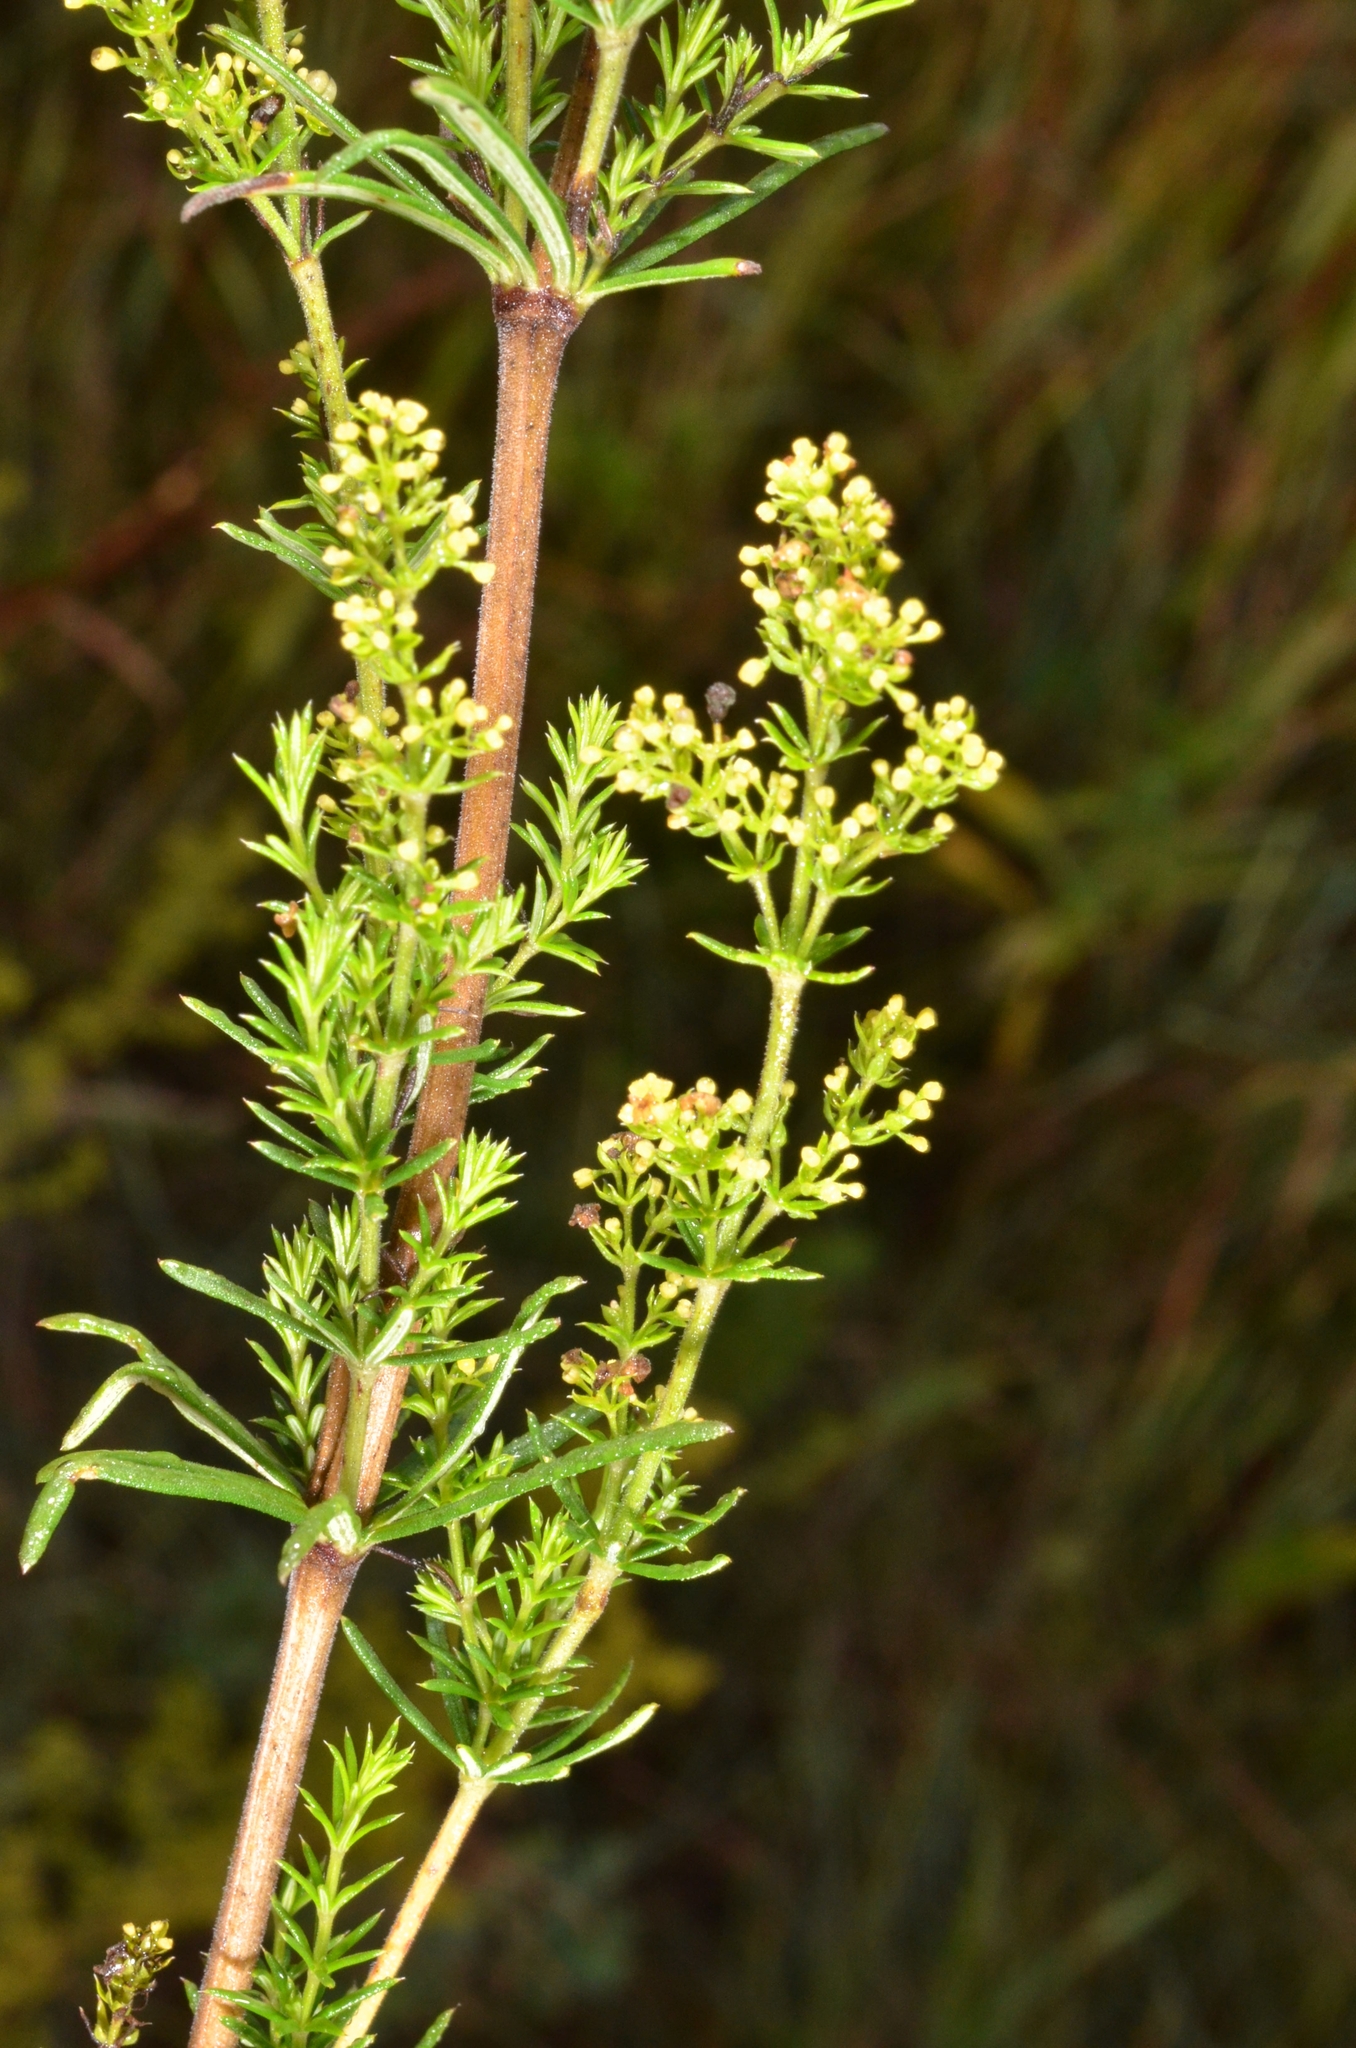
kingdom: Plantae
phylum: Tracheophyta
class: Magnoliopsida
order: Gentianales
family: Rubiaceae
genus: Galium
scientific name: Galium verum
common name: Lady's bedstraw
